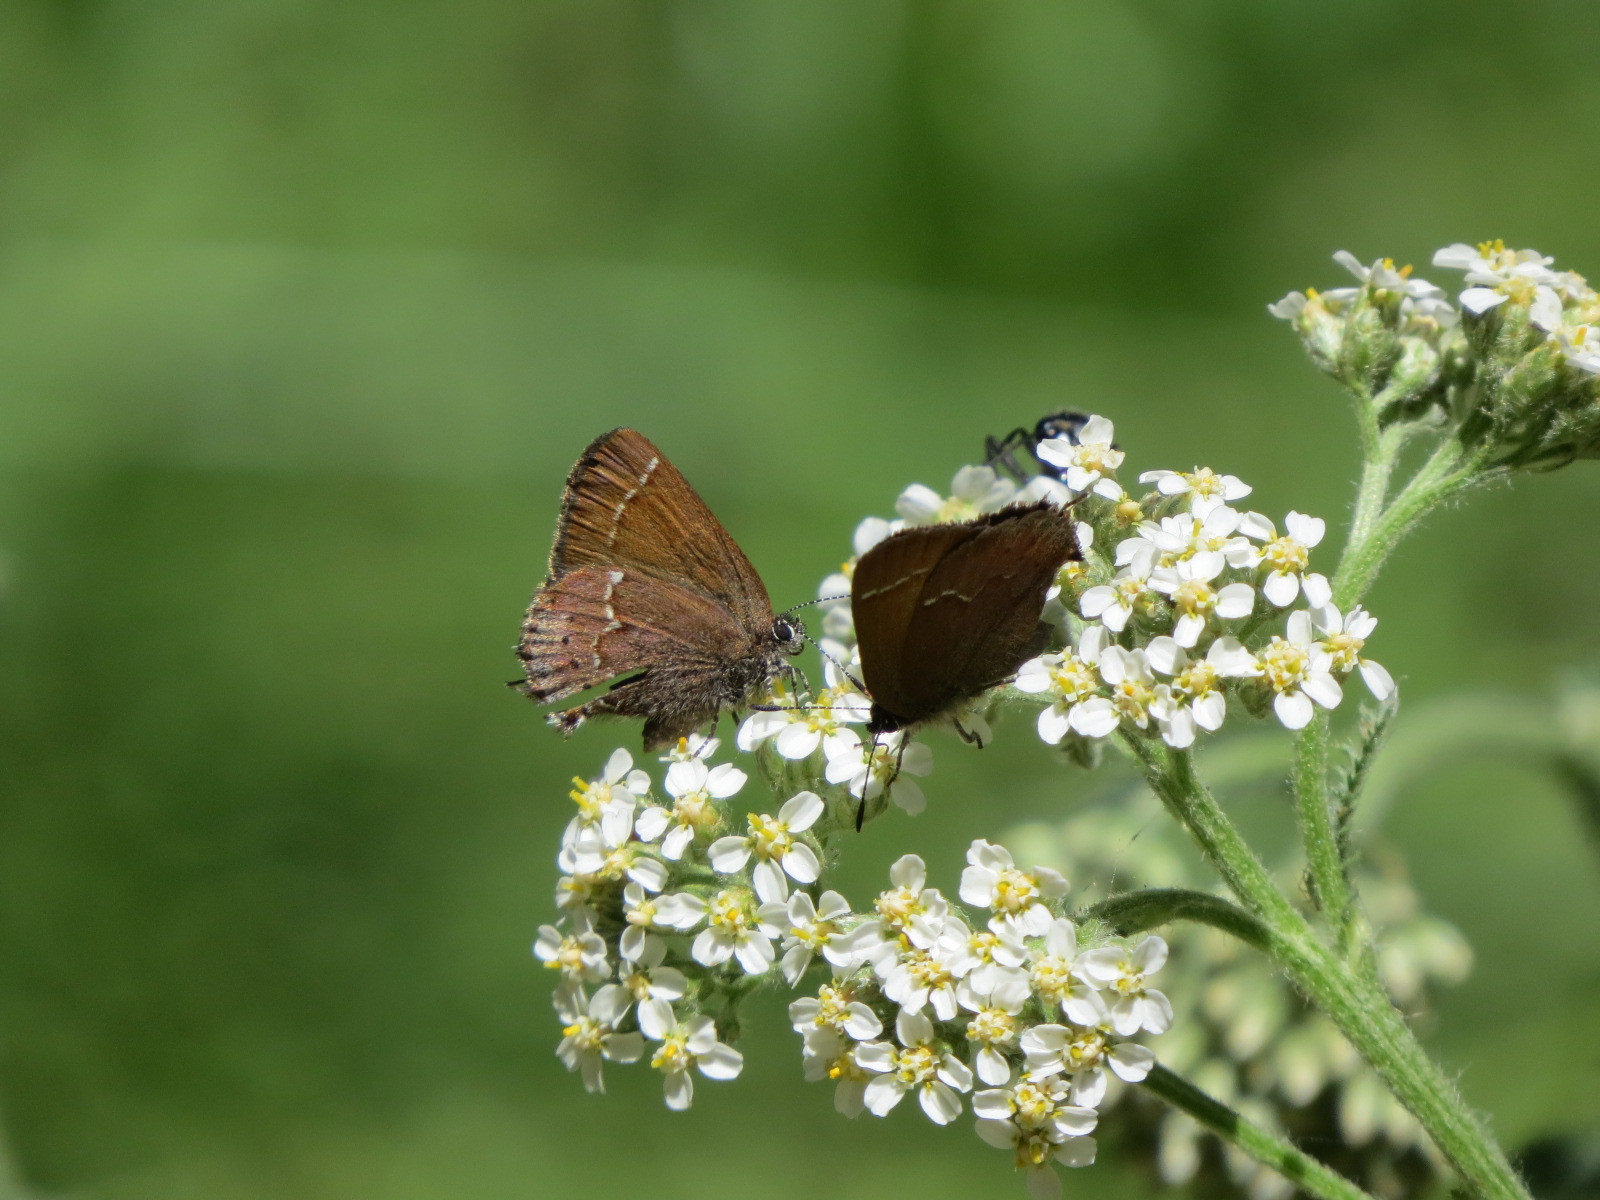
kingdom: Animalia
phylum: Arthropoda
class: Insecta
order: Lepidoptera
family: Lycaenidae
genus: Mitoura
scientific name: Mitoura gryneus
